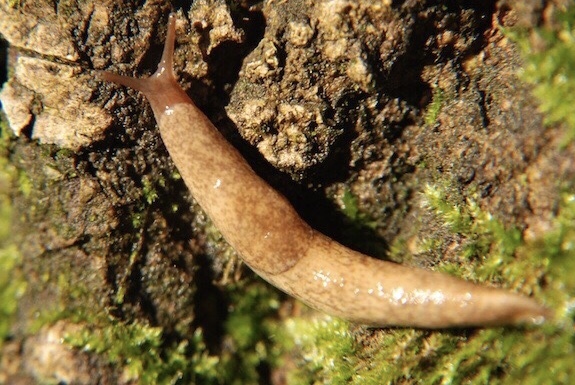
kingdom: Animalia
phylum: Mollusca
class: Gastropoda
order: Stylommatophora
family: Agriolimacidae
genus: Deroceras
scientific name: Deroceras reticulatum
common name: Gray field slug
